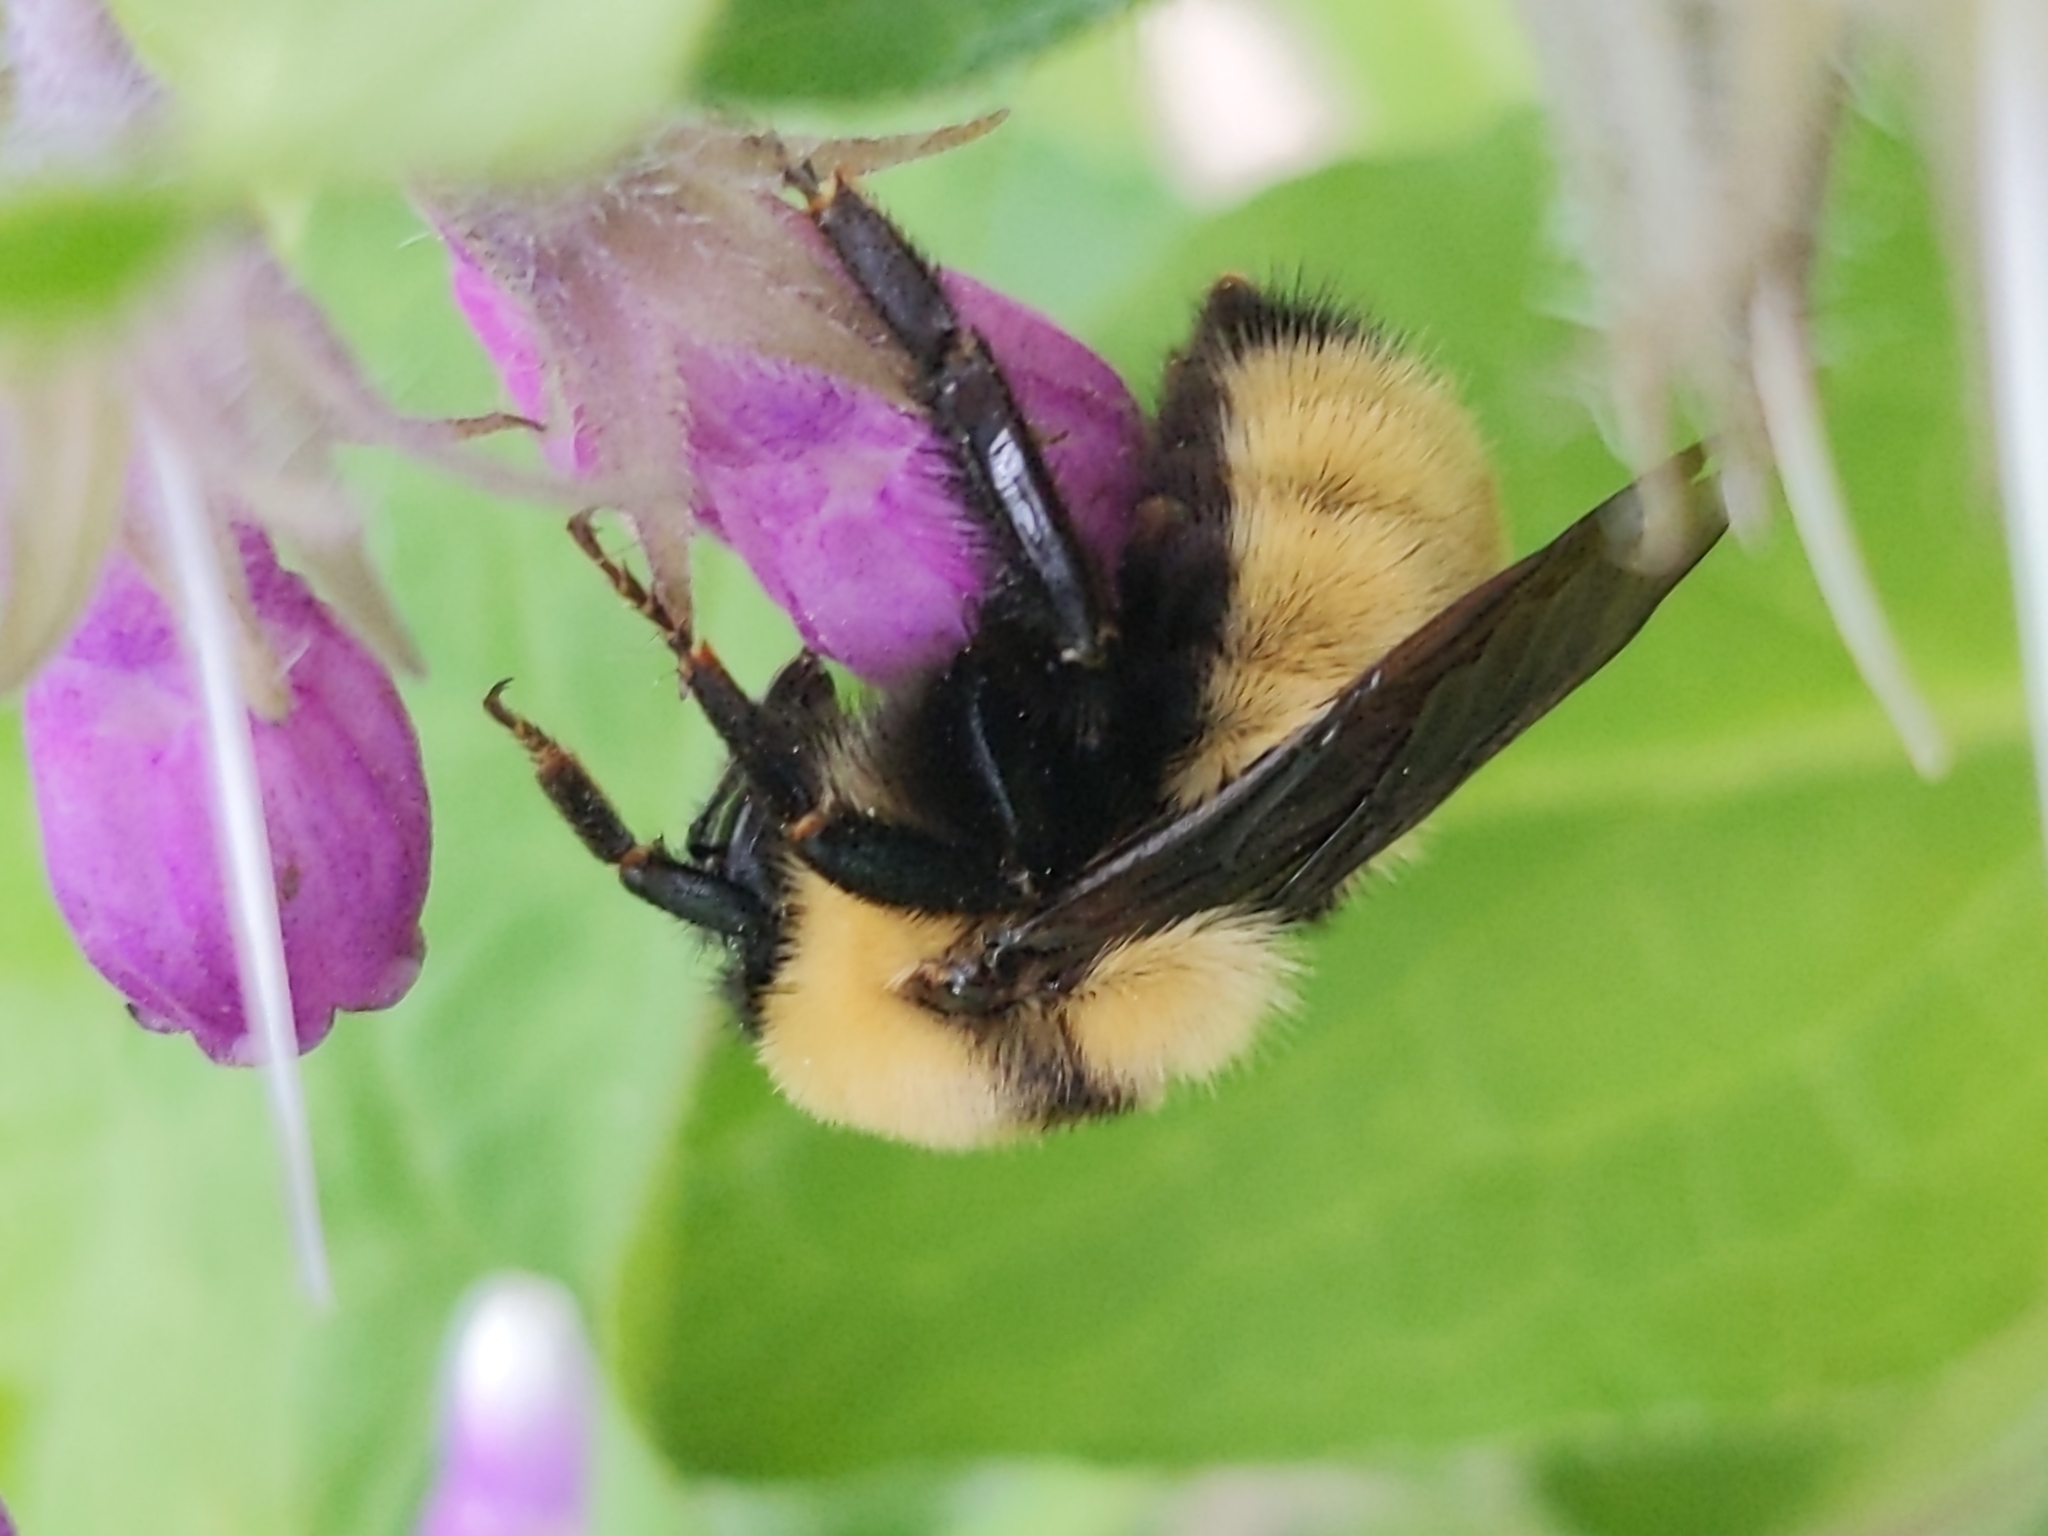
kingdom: Animalia
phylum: Arthropoda
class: Insecta
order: Hymenoptera
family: Apidae
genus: Bombus
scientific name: Bombus fervidus
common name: Yellow bumble bee
